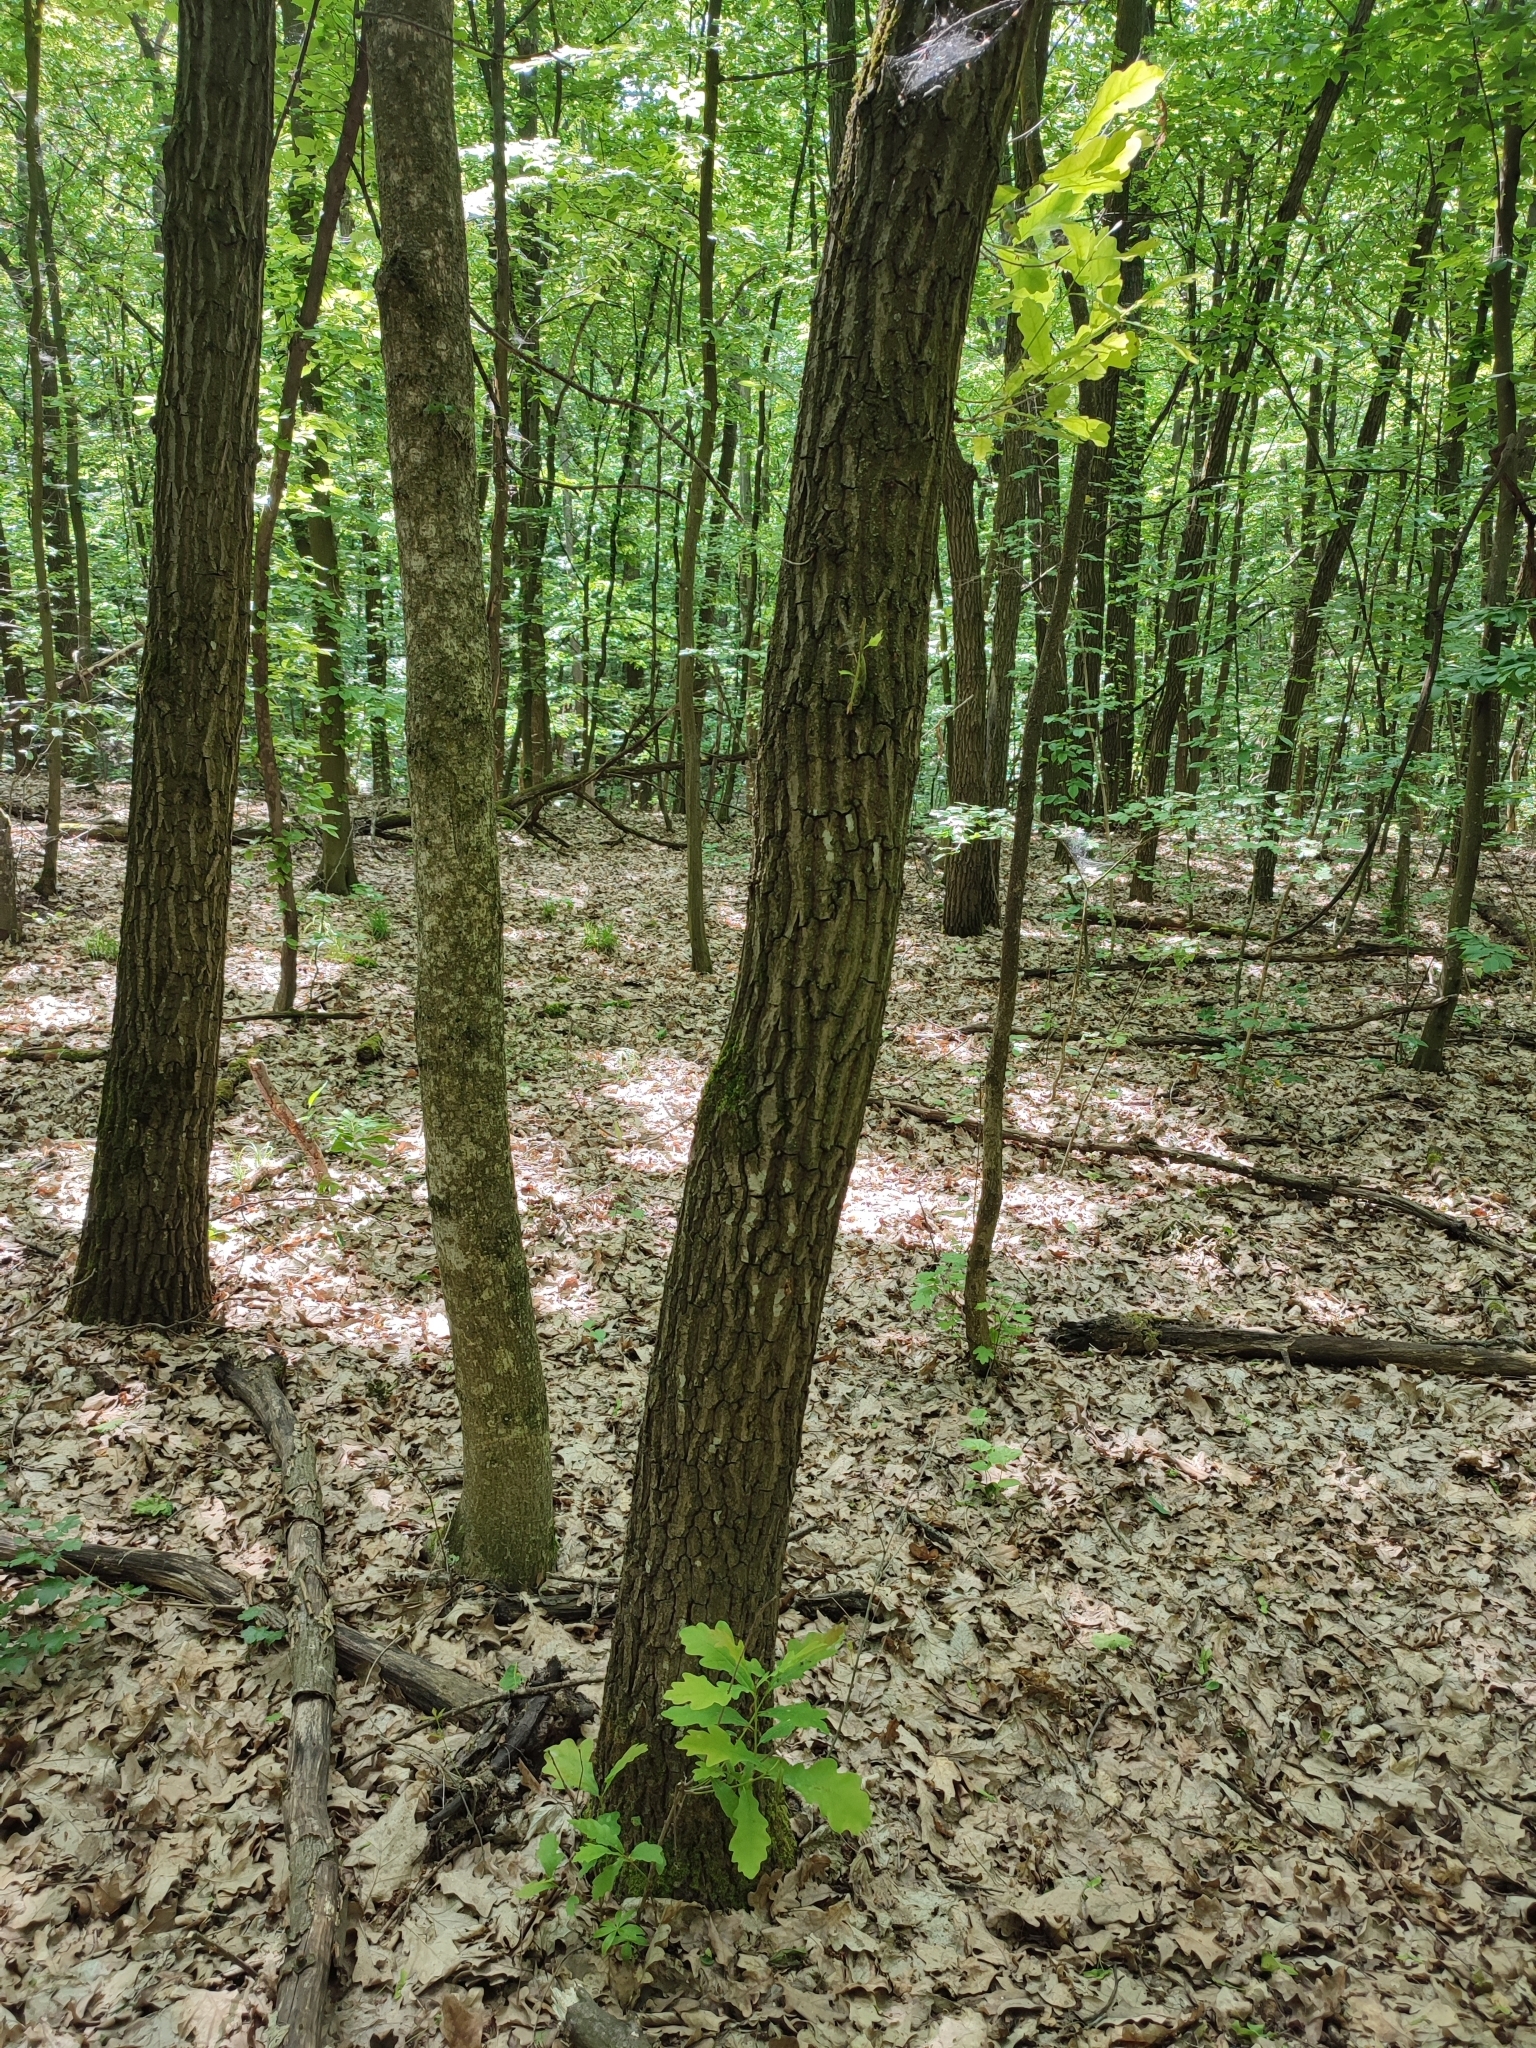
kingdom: Plantae
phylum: Tracheophyta
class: Magnoliopsida
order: Fagales
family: Fagaceae
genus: Quercus
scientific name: Quercus robur
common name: Pedunculate oak
